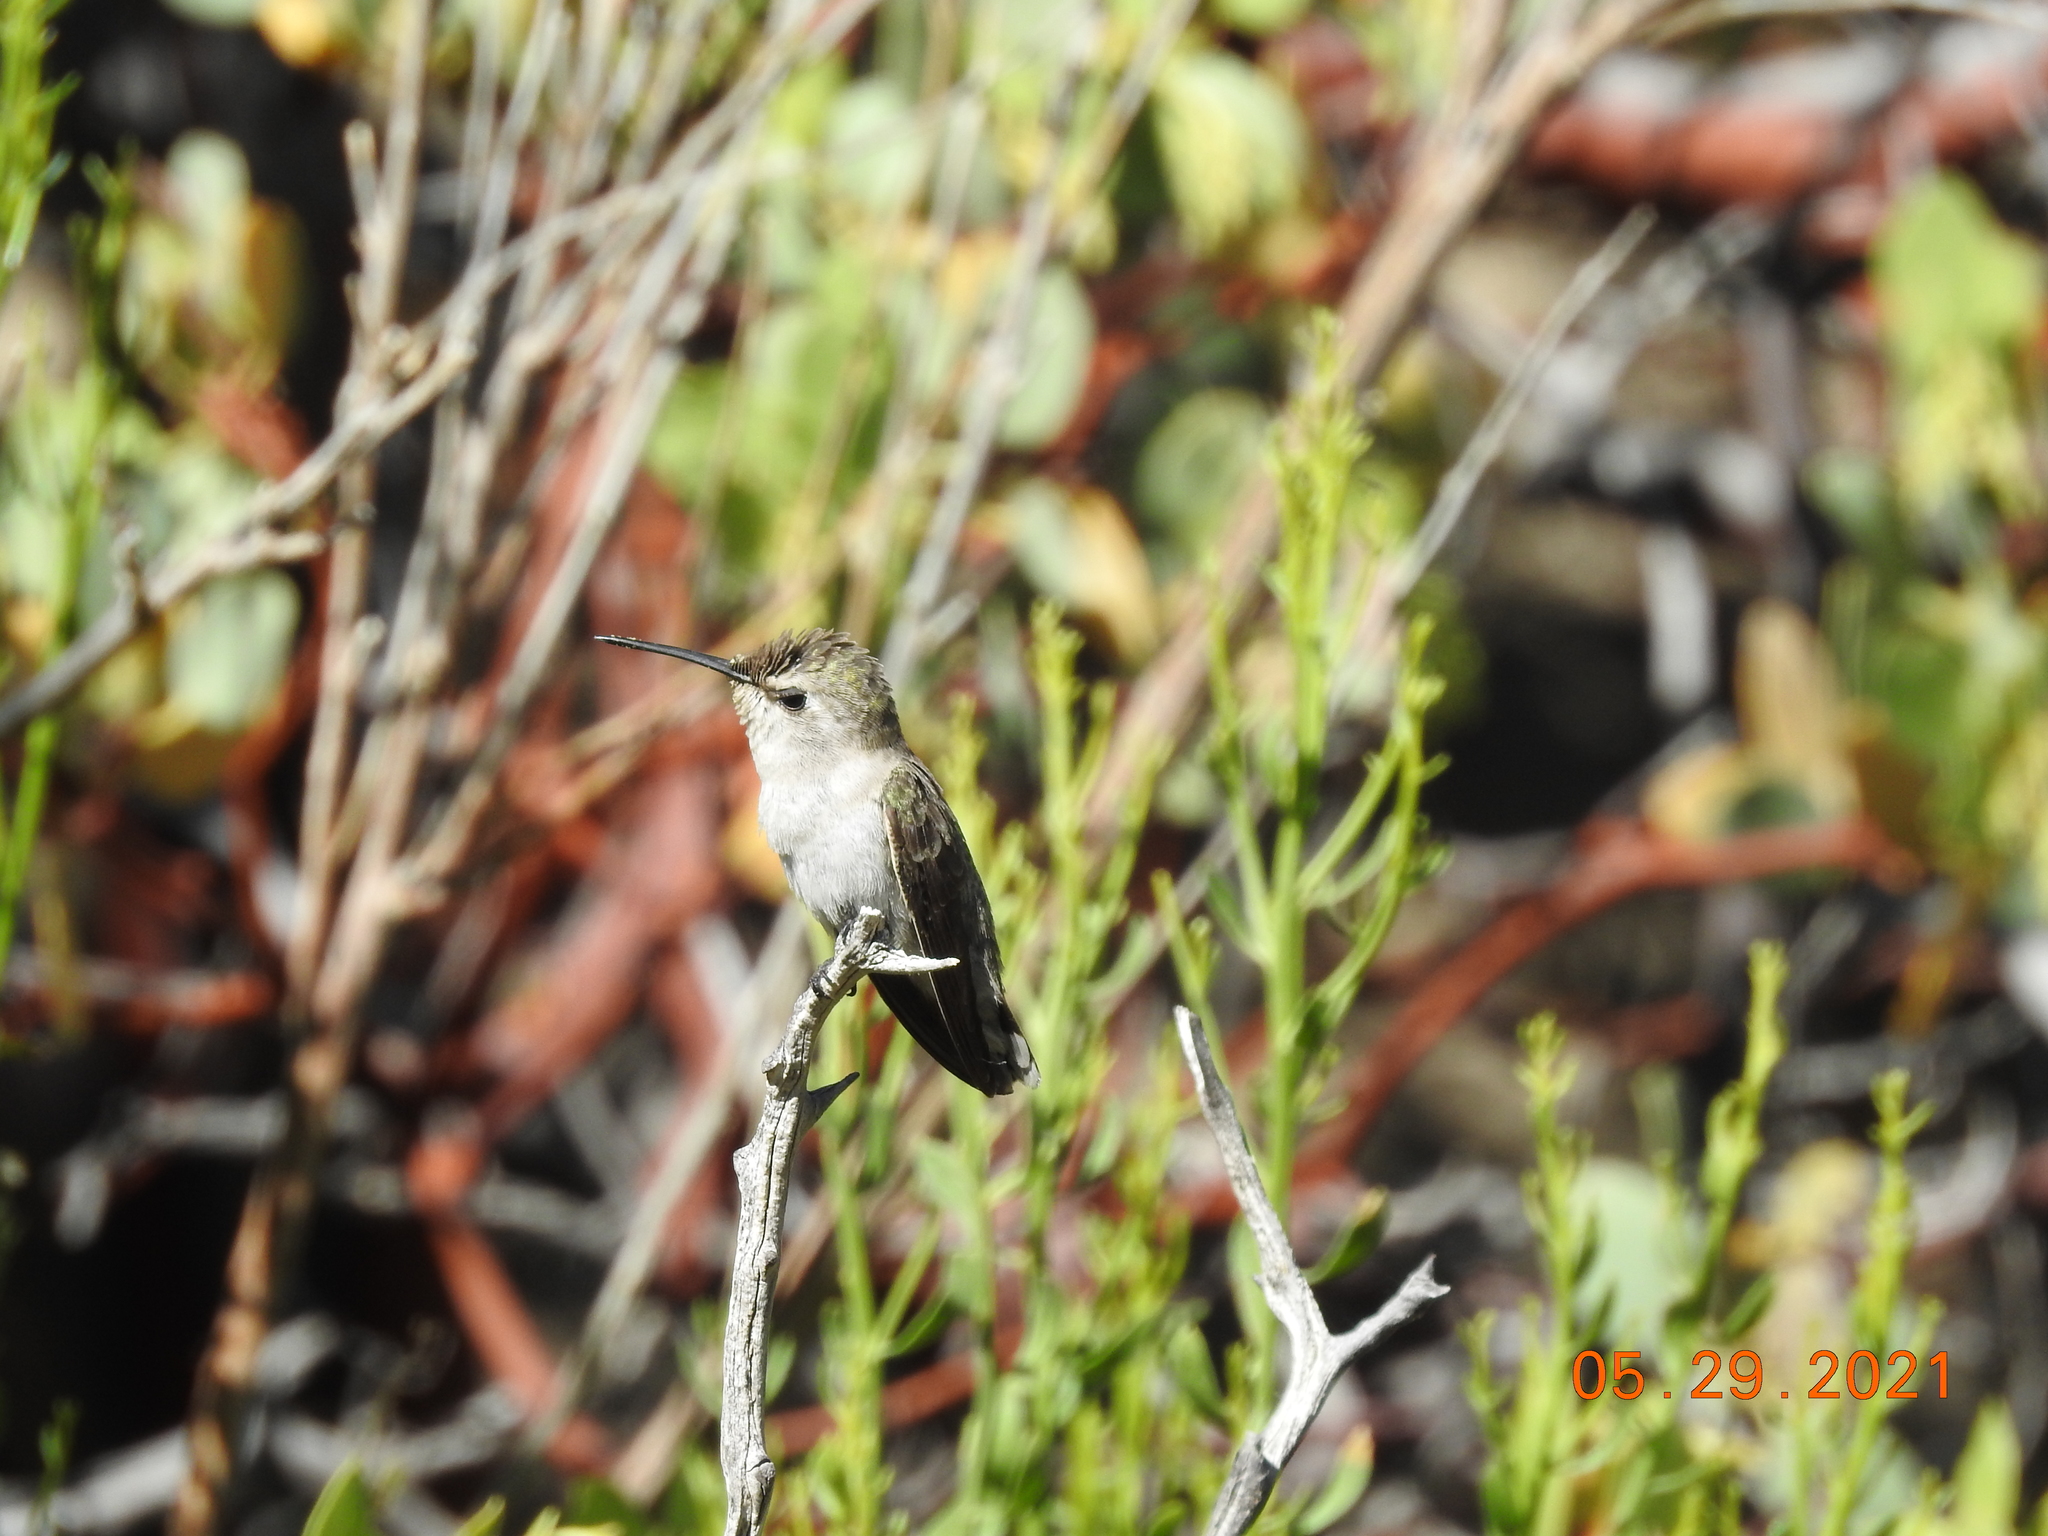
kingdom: Animalia
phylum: Chordata
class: Aves
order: Apodiformes
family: Trochilidae
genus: Calypte
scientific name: Calypte costae
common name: Costa's hummingbird
